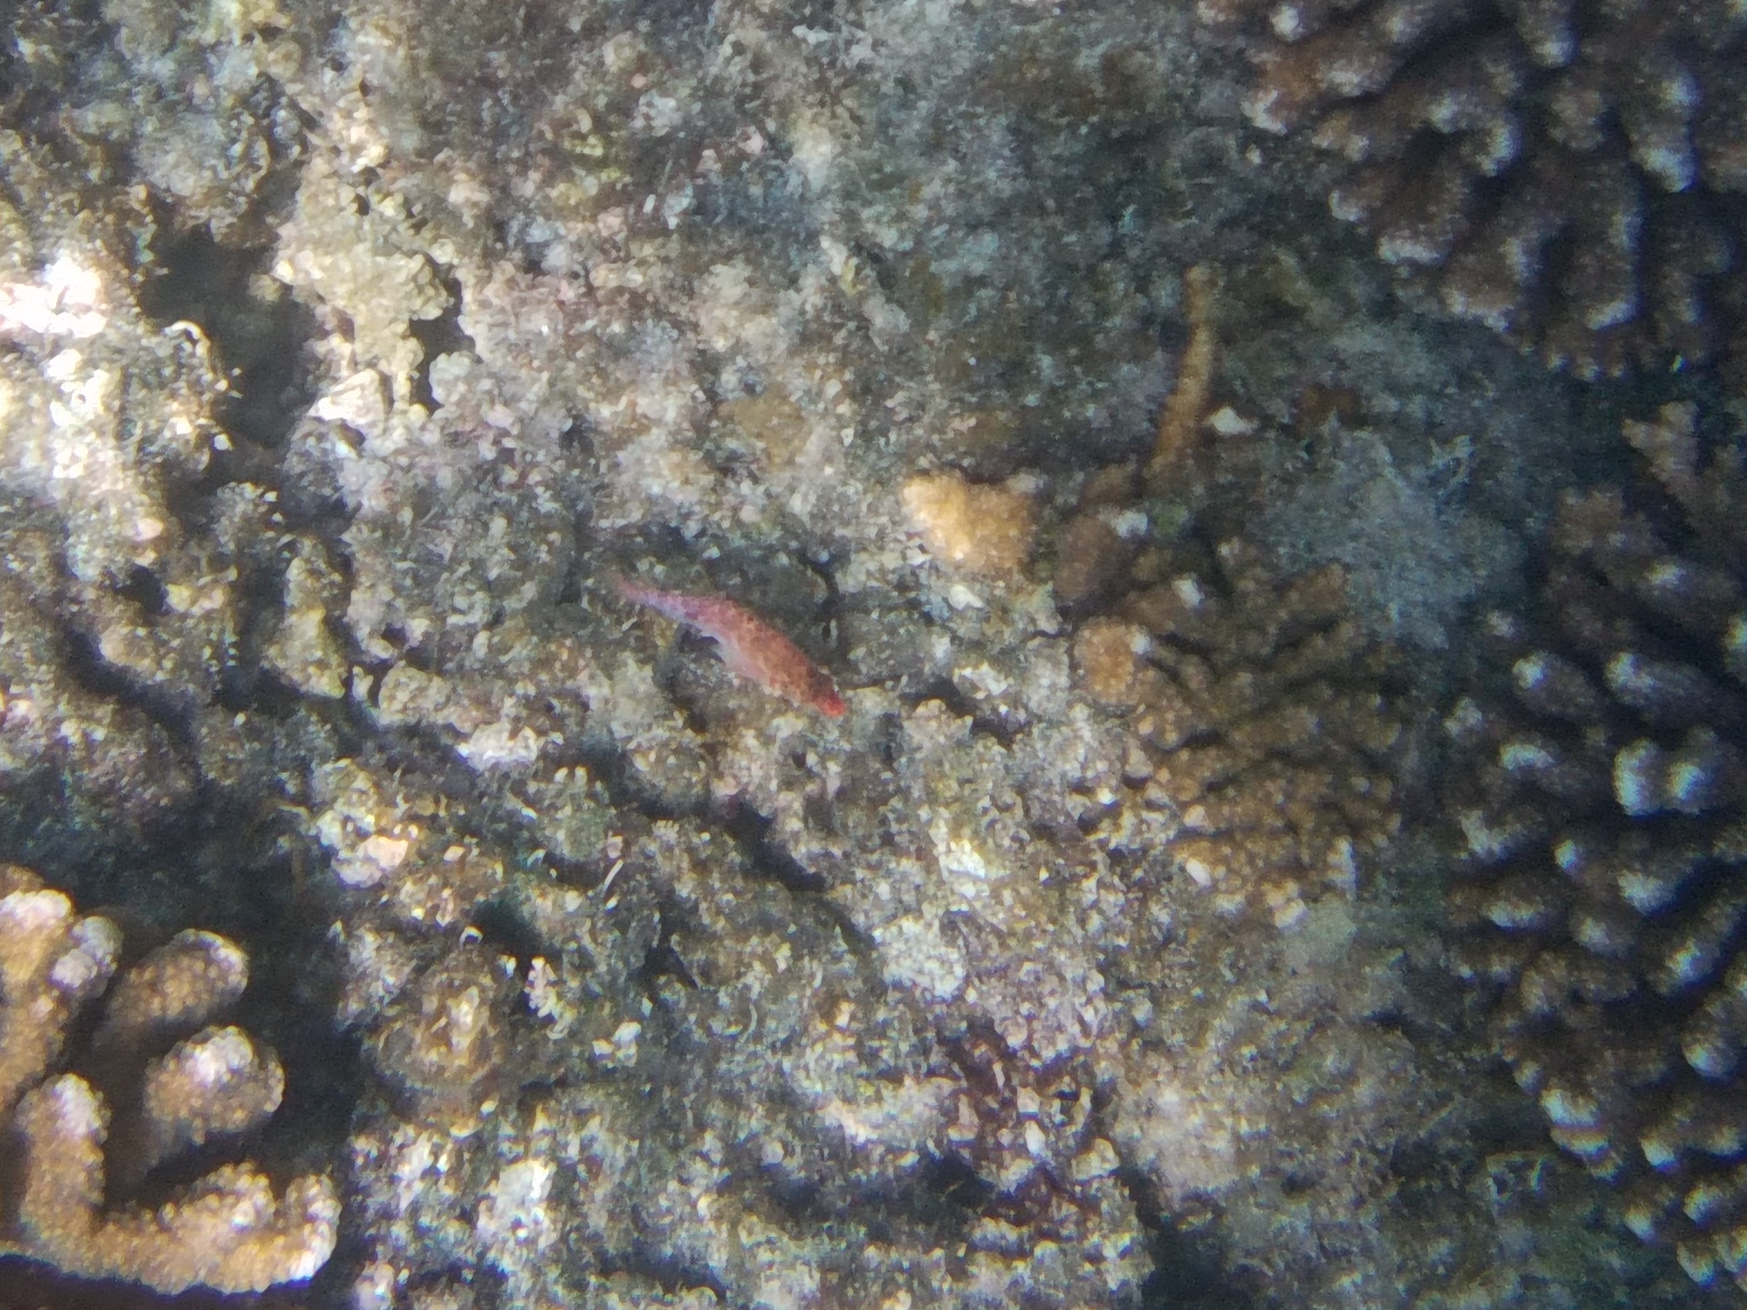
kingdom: Animalia
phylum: Chordata
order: Perciformes
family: Cirrhitidae
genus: Cirrhitichthys
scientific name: Cirrhitichthys oxycephalus
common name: Spotted hawkfish
